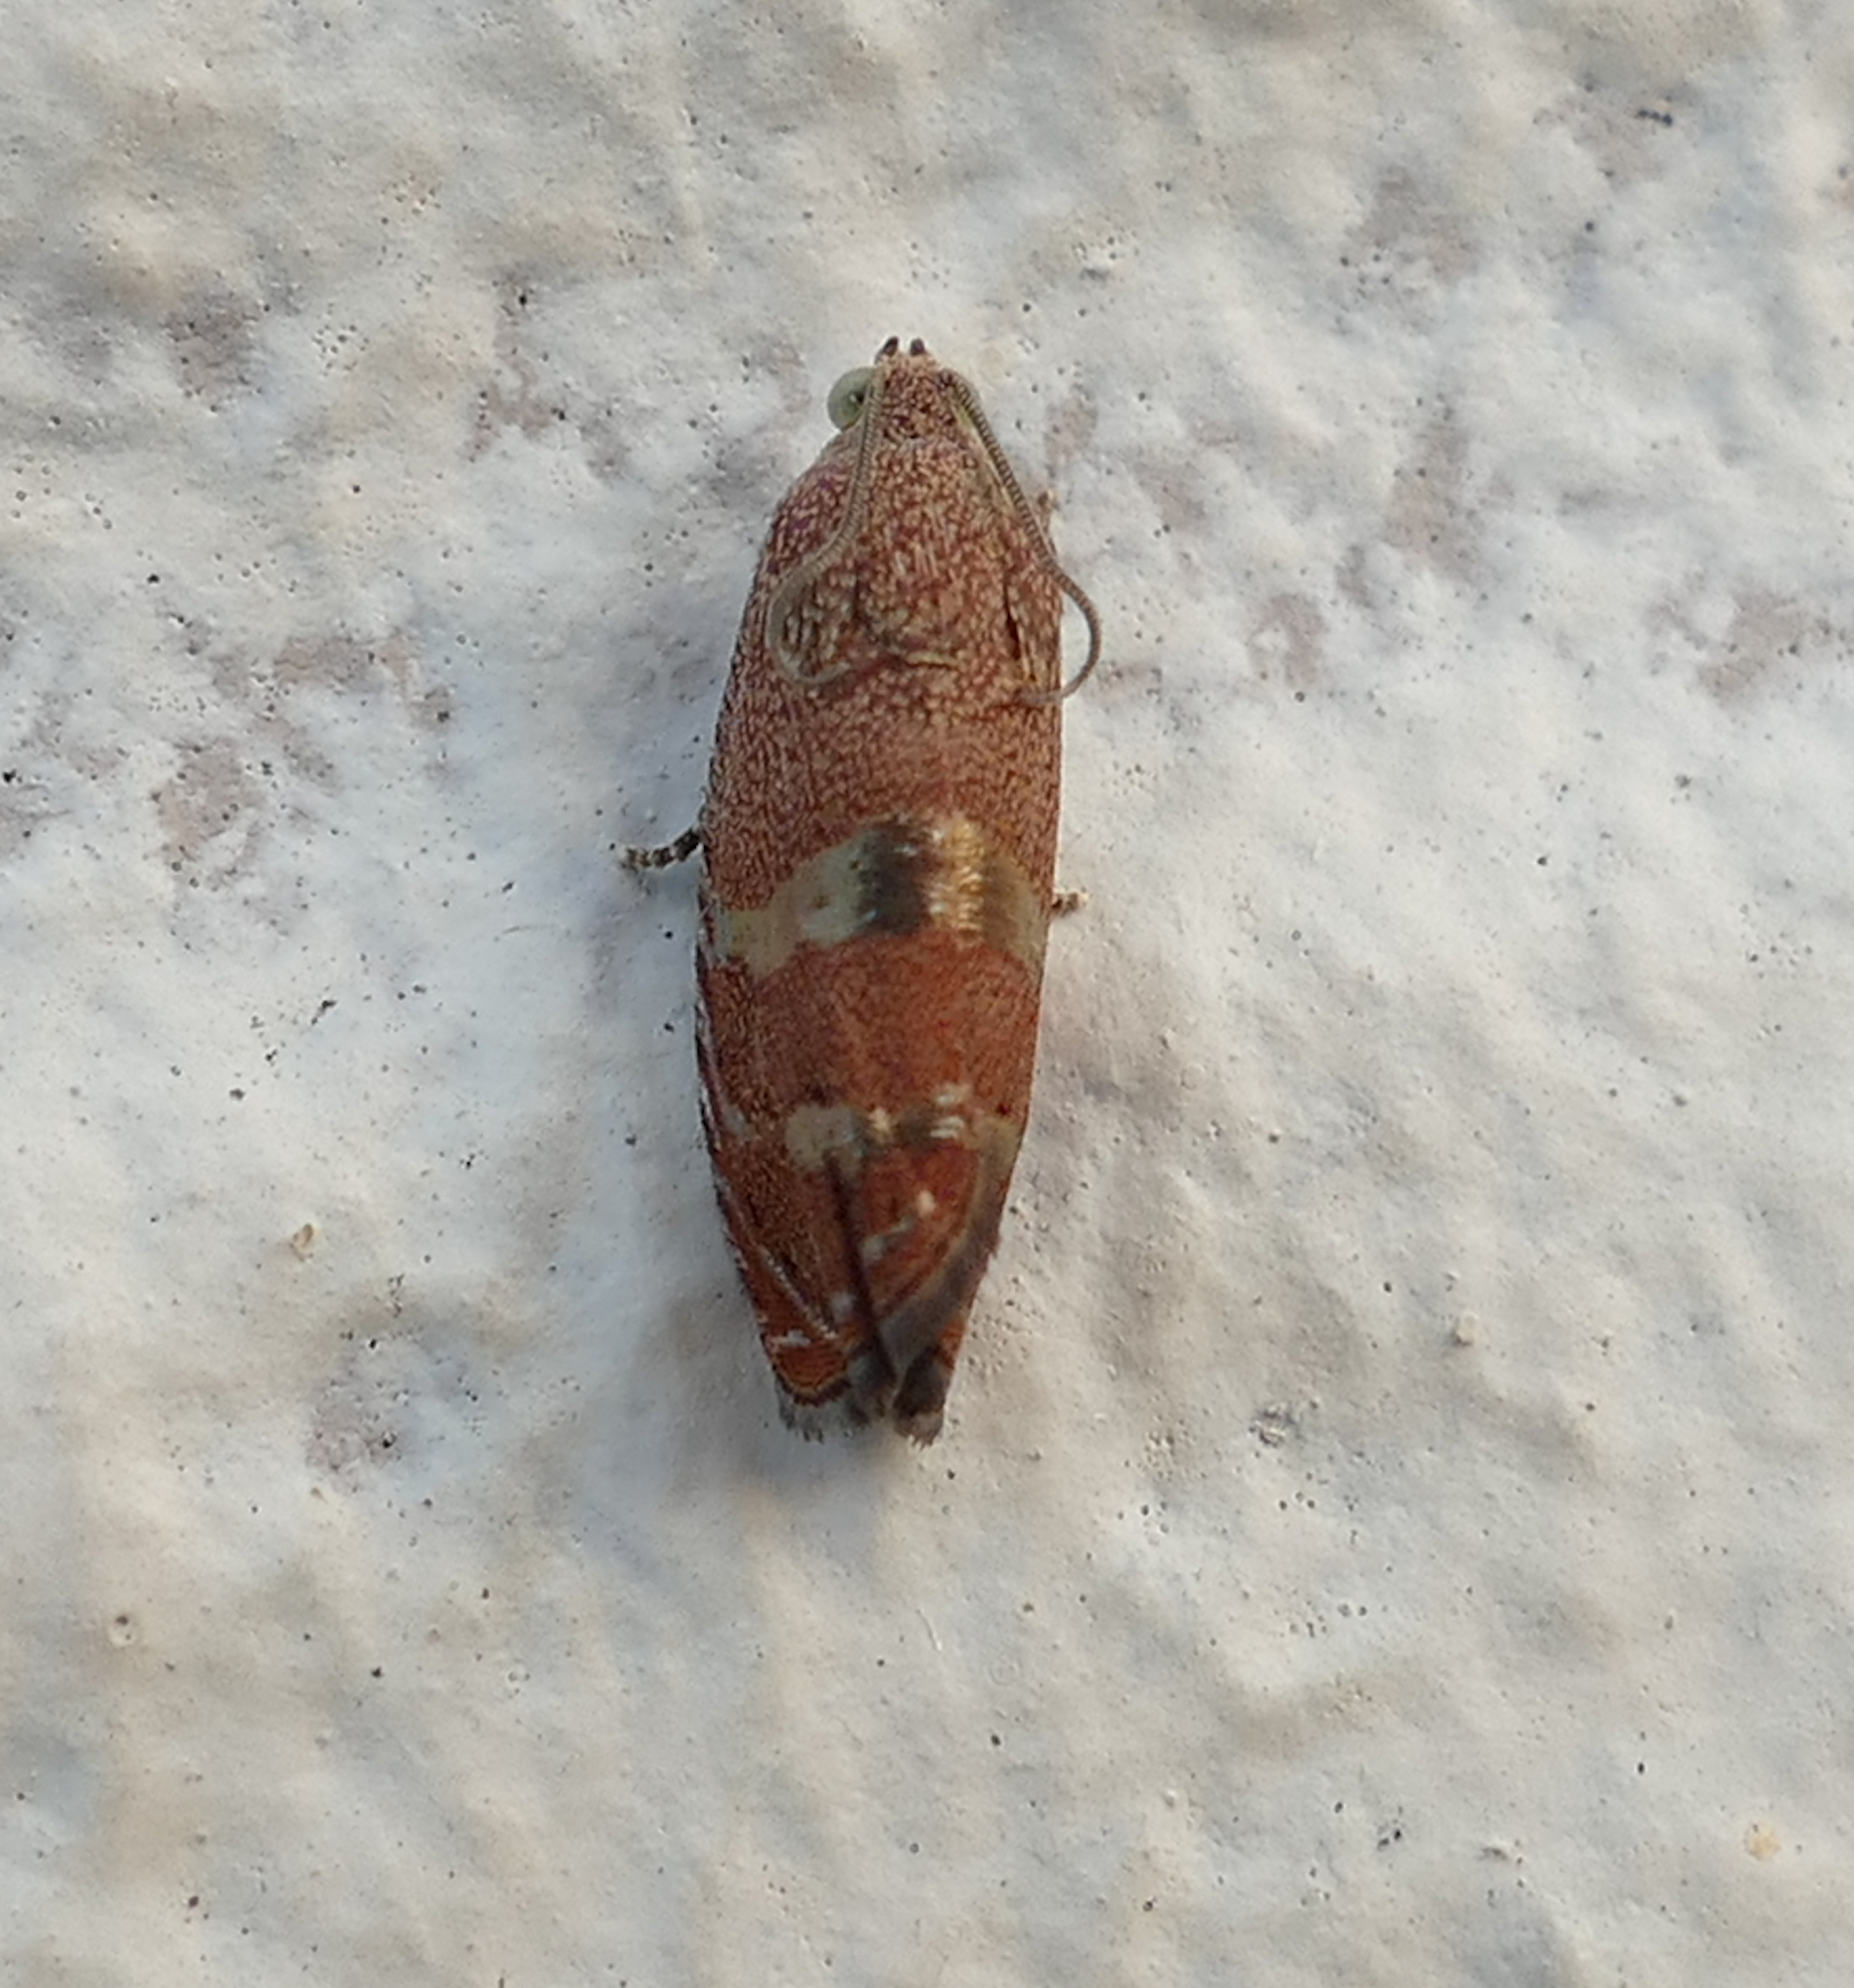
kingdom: Animalia
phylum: Arthropoda
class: Insecta
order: Lepidoptera
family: Tortricidae
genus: Cydia
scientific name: Cydia latiferreana
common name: Filbertworm moth
